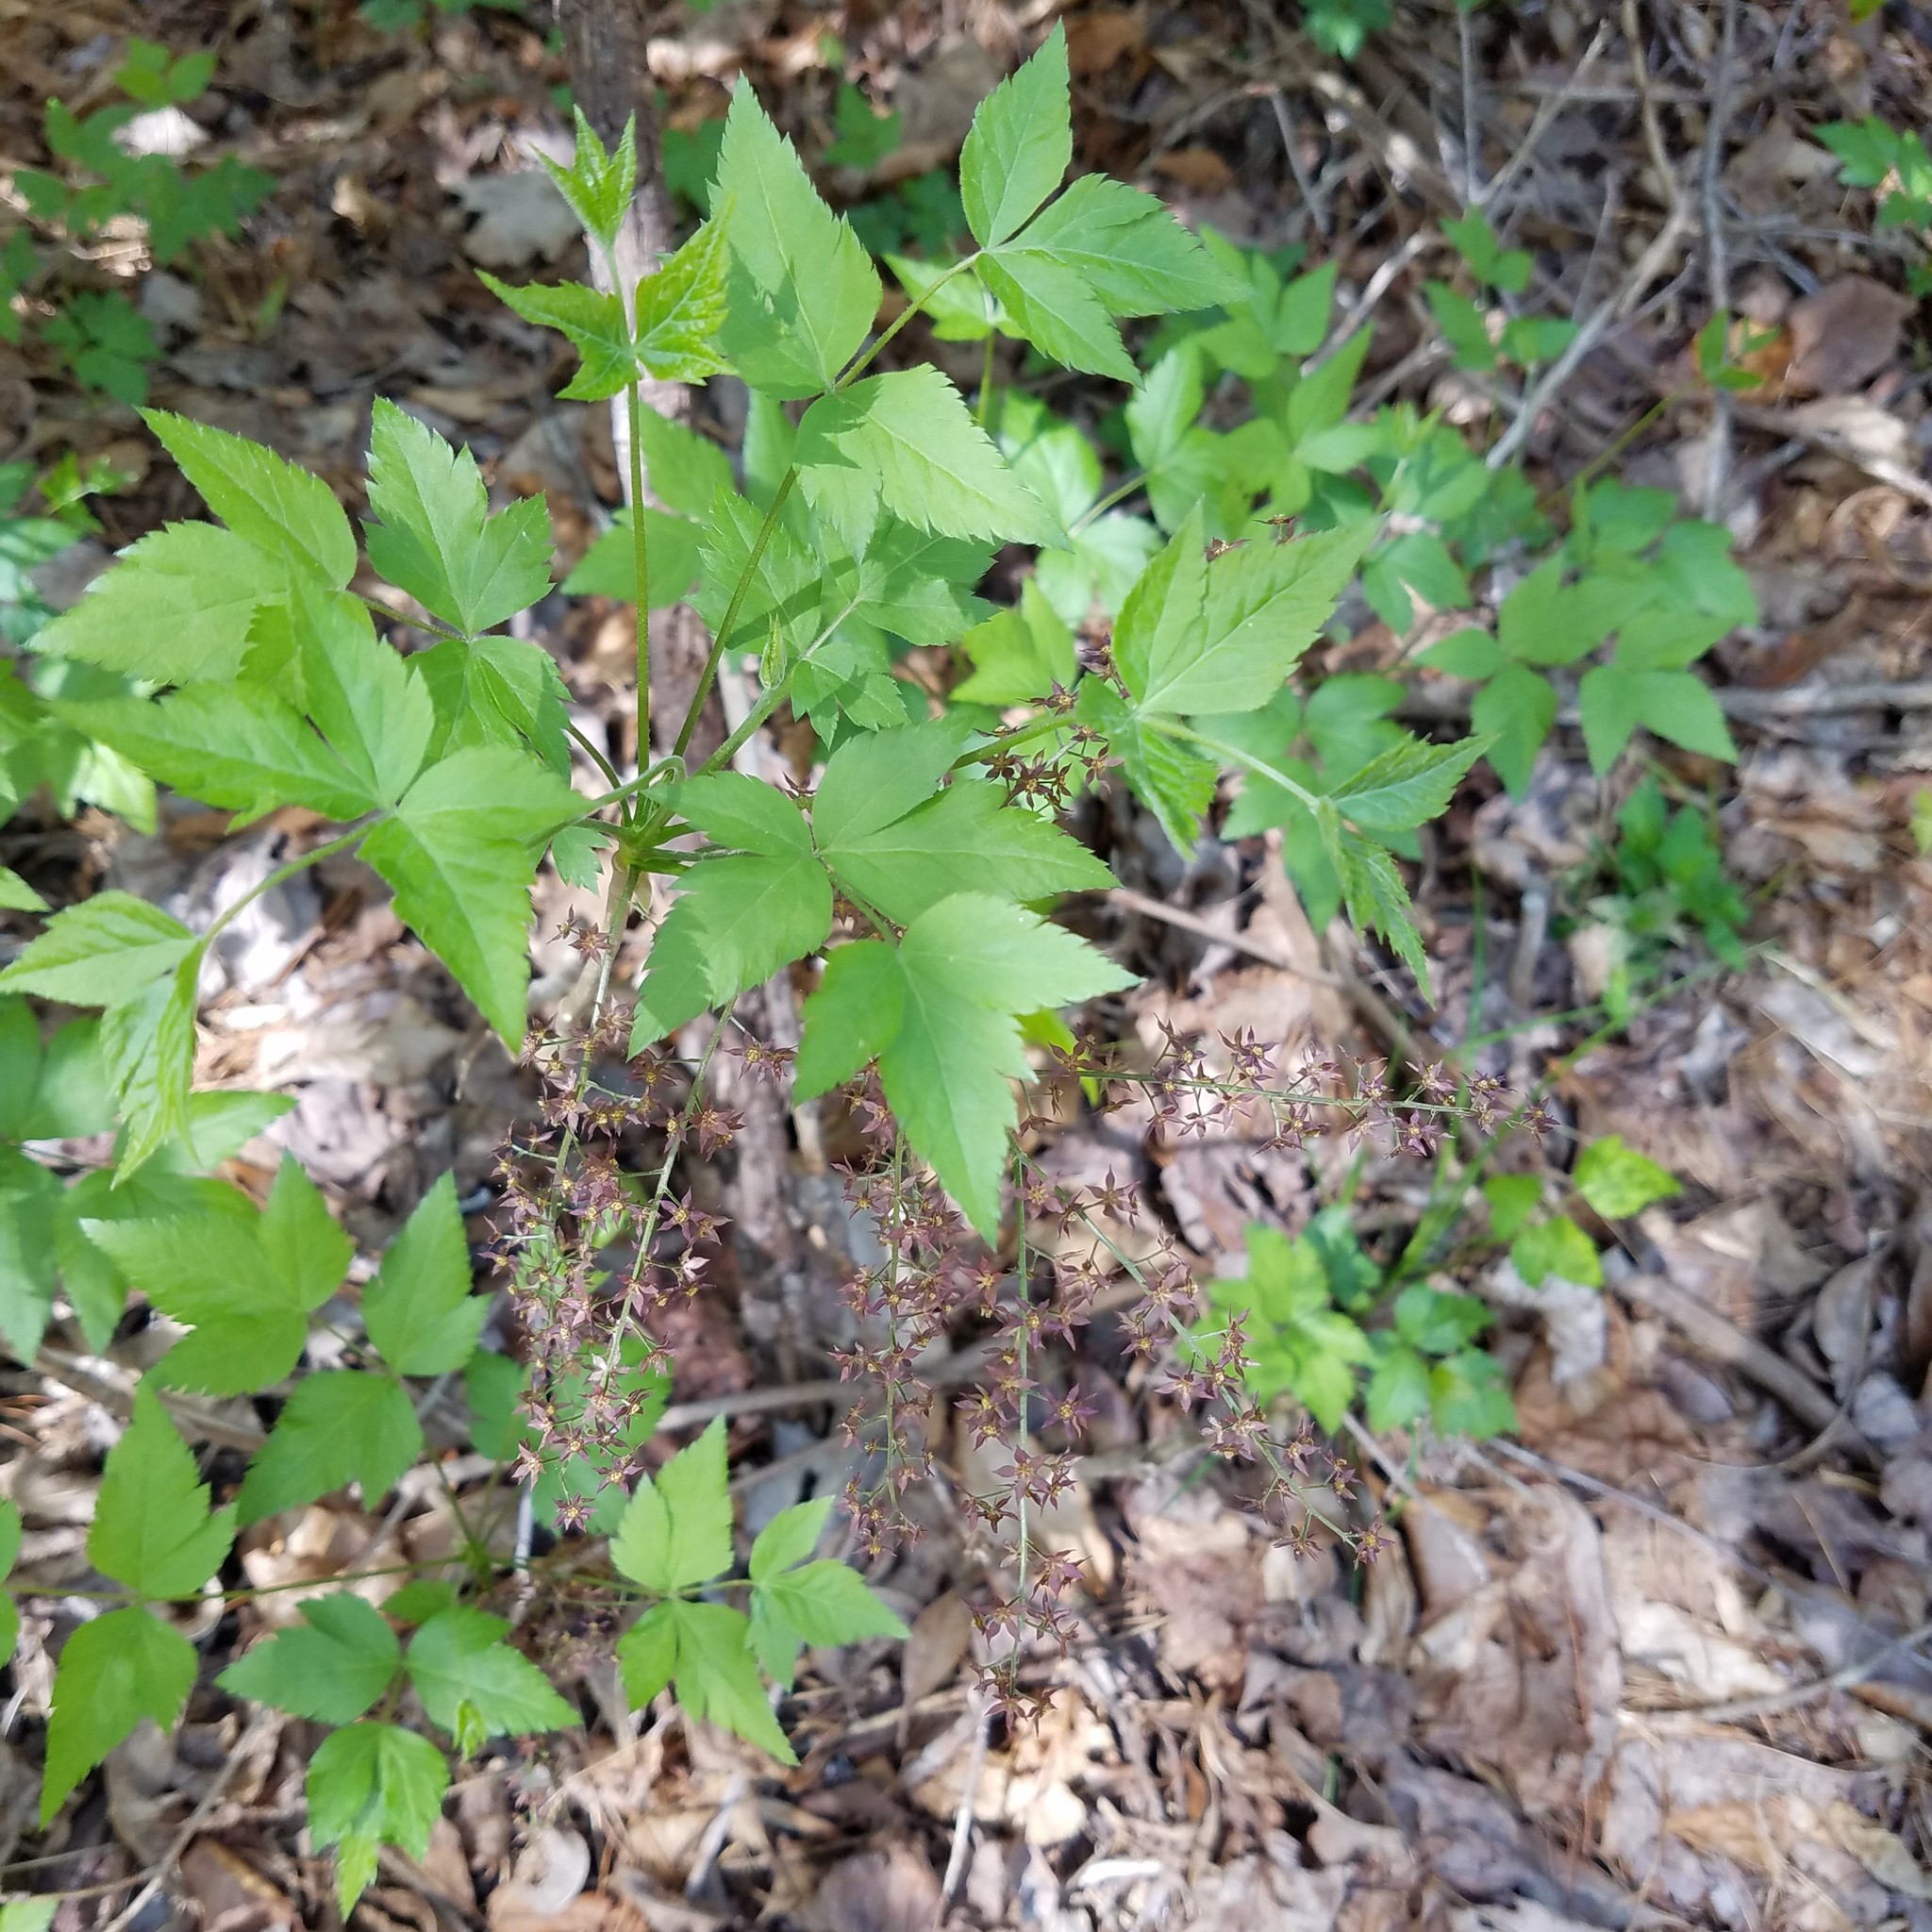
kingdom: Plantae
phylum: Tracheophyta
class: Magnoliopsida
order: Ranunculales
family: Ranunculaceae
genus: Xanthorhiza
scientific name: Xanthorhiza simplicissima
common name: Yellowroot
